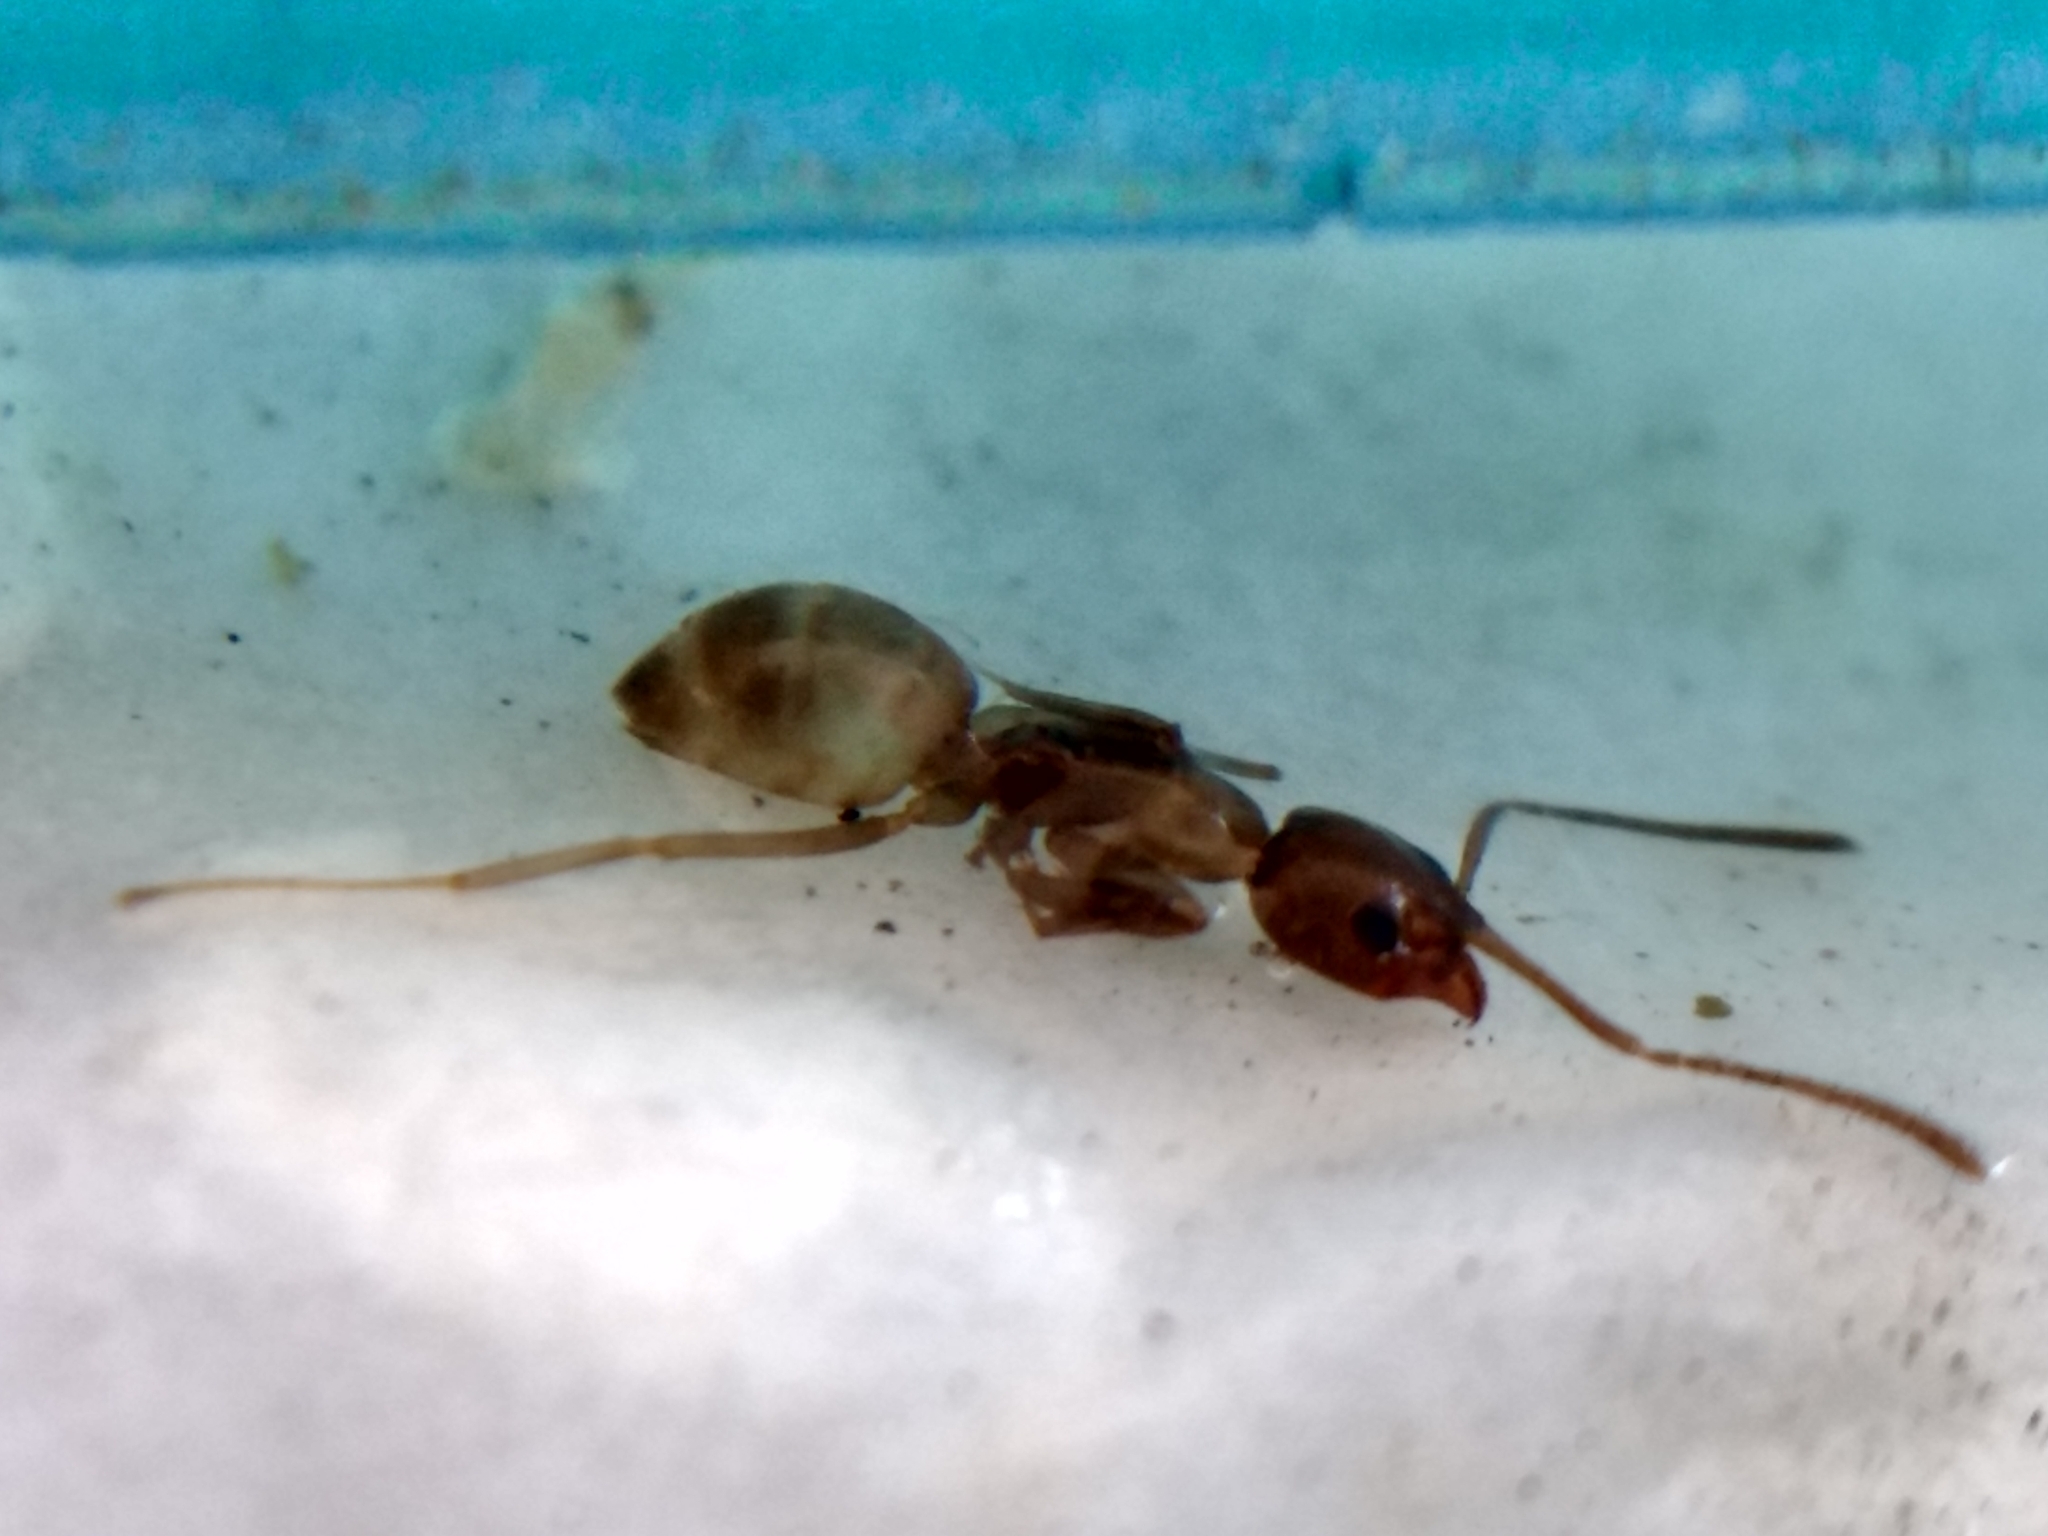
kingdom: Animalia
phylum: Arthropoda
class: Insecta
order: Hymenoptera
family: Formicidae
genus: Linepithema
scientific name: Linepithema humile
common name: Argentine ant
